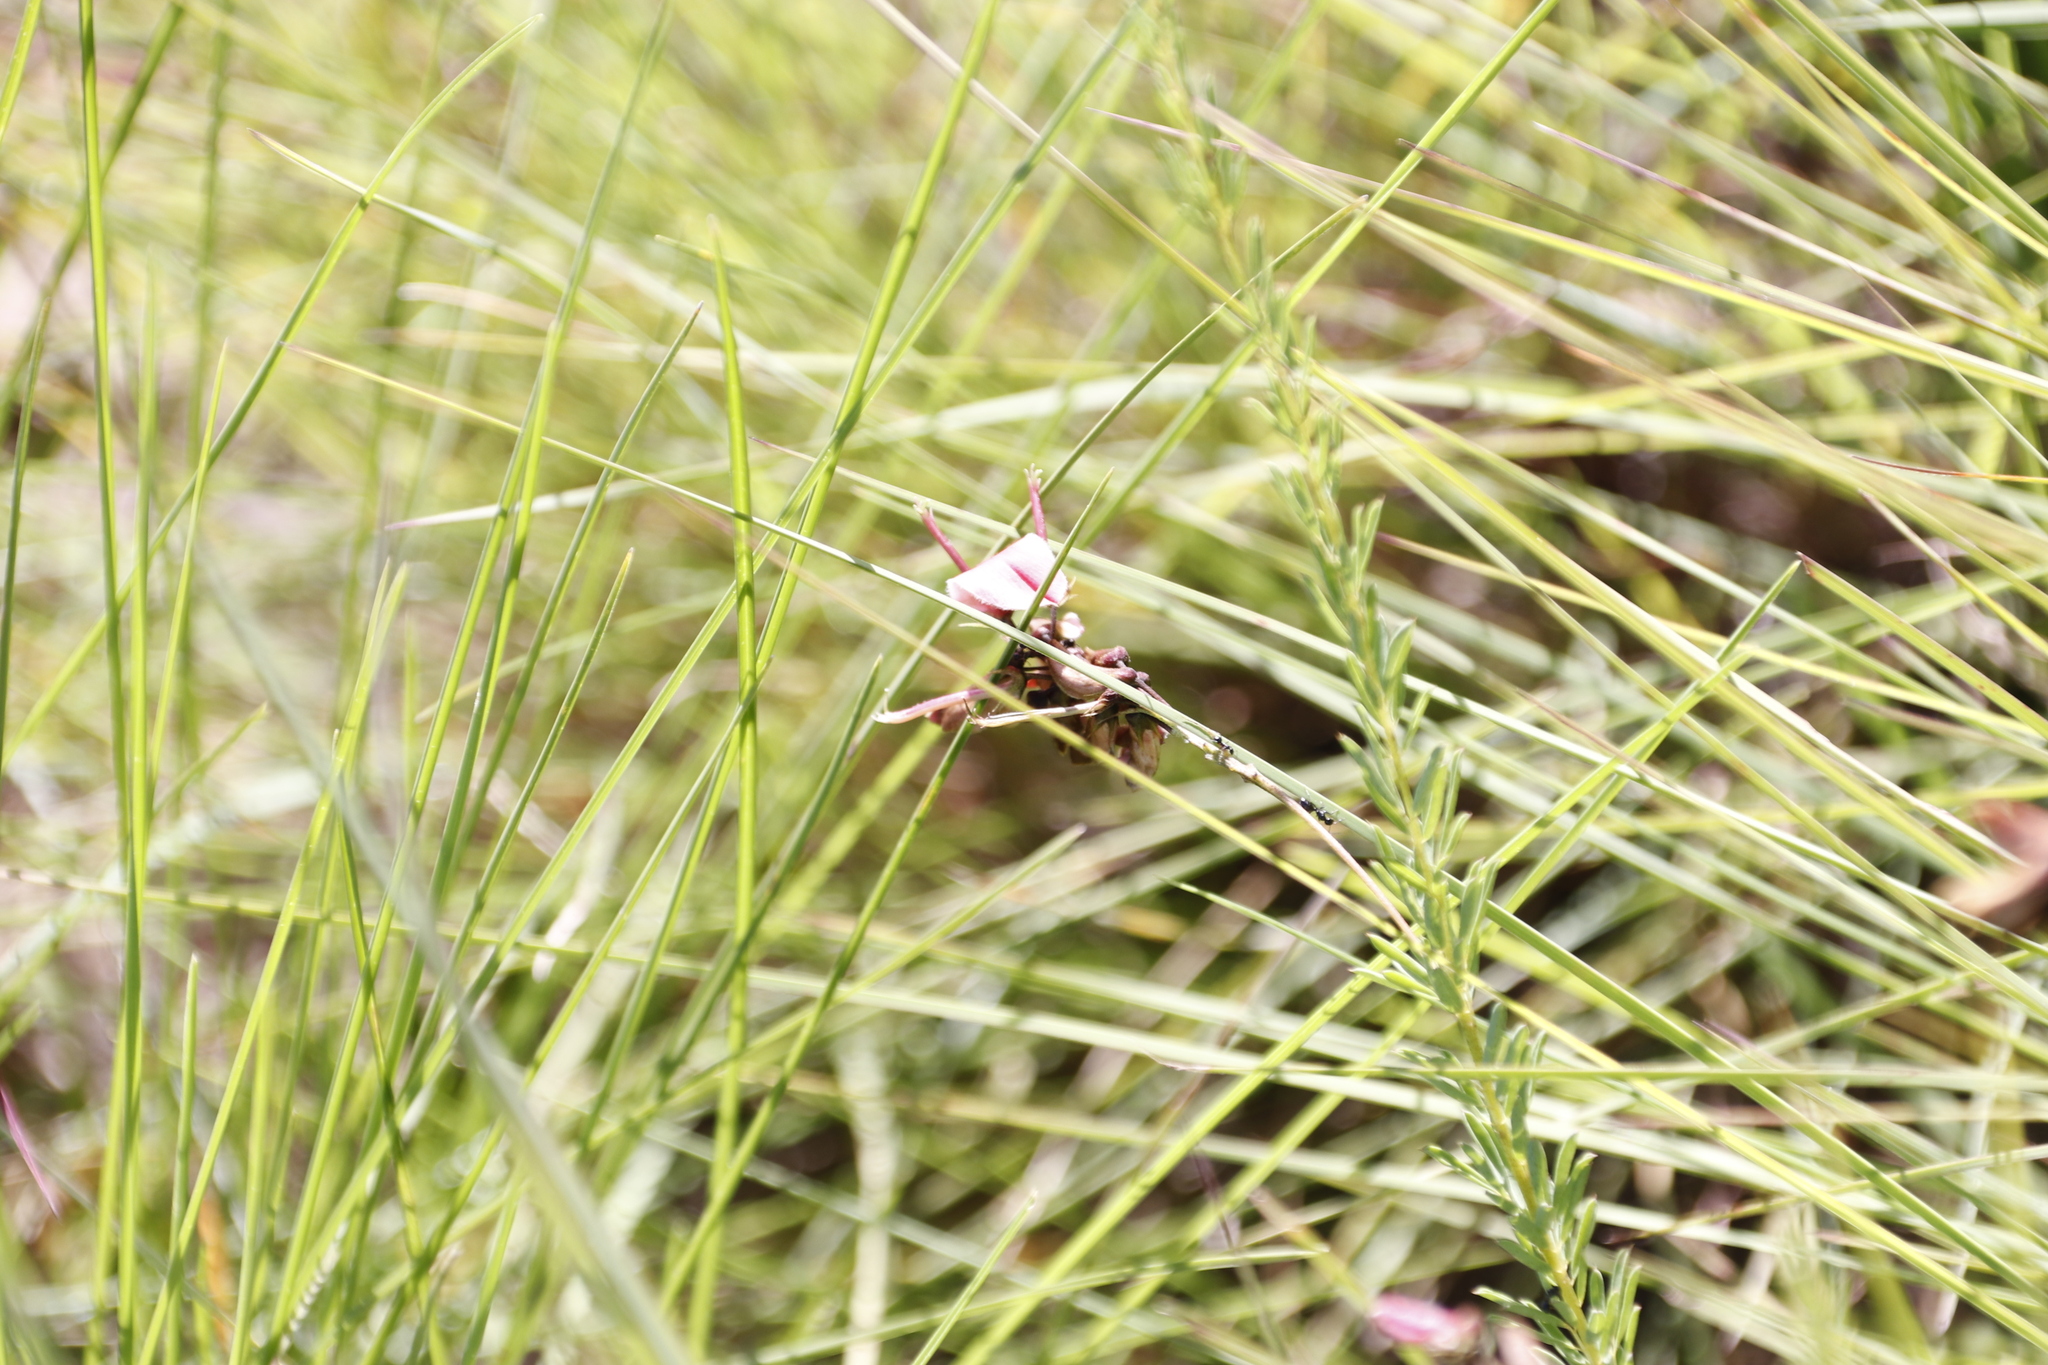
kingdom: Plantae
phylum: Tracheophyta
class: Magnoliopsida
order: Fabales
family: Fabaceae
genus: Indigofera
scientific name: Indigofera rostrata
